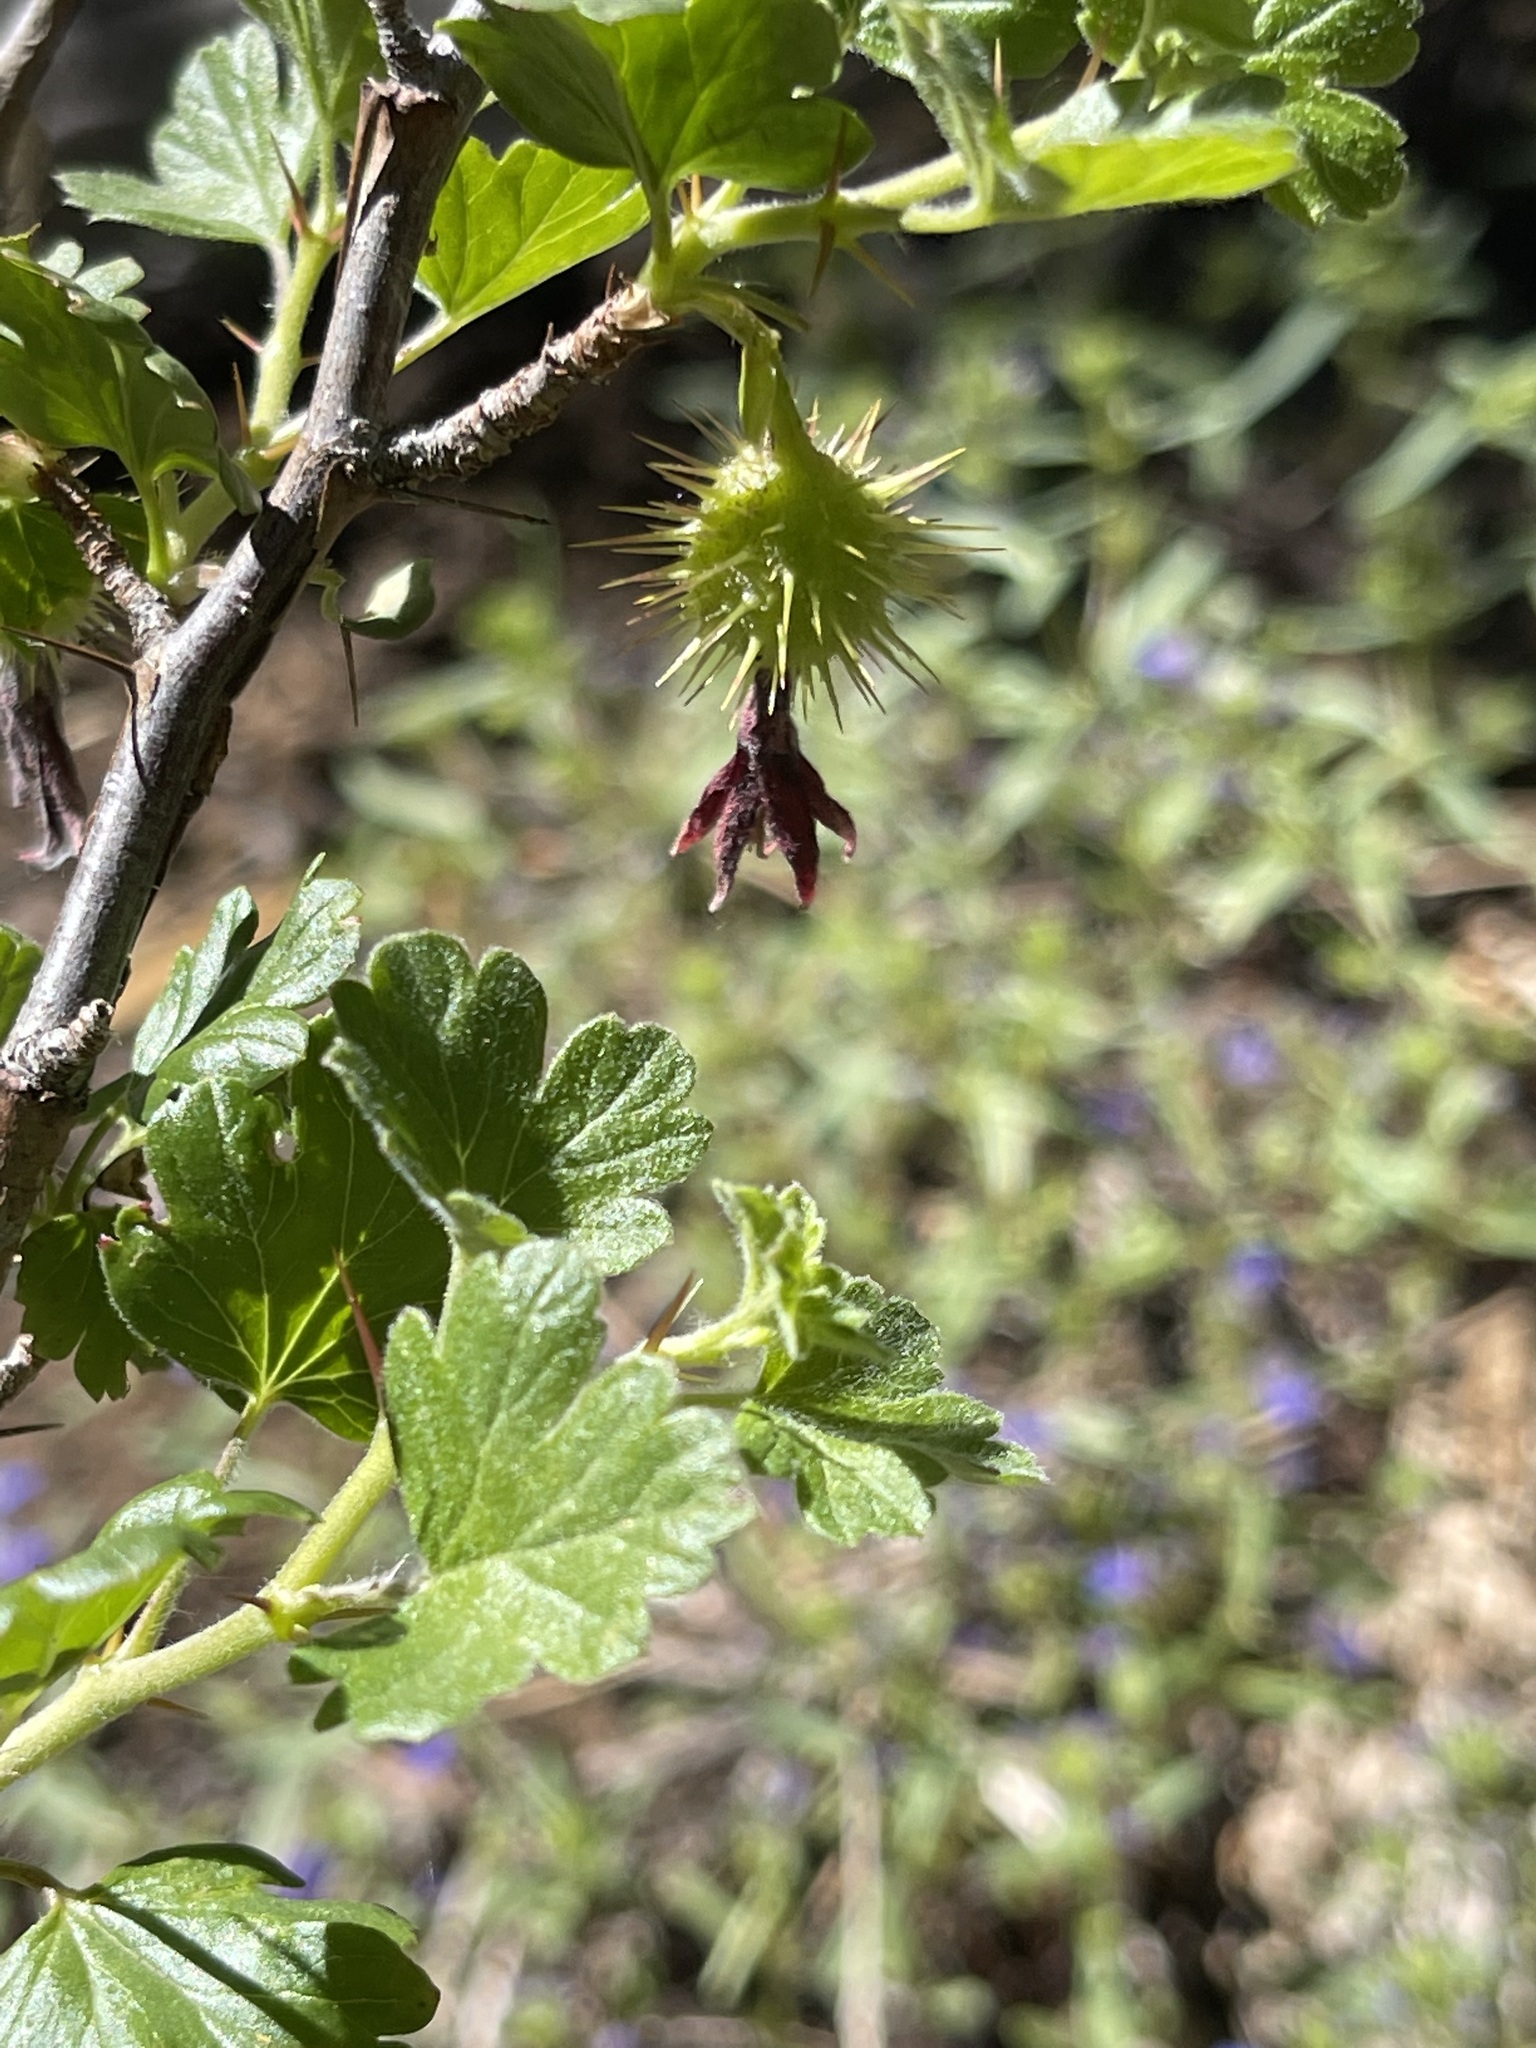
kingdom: Plantae
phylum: Tracheophyta
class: Magnoliopsida
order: Saxifragales
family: Grossulariaceae
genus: Ribes
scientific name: Ribes roezlii
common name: Sierra gooseberry
